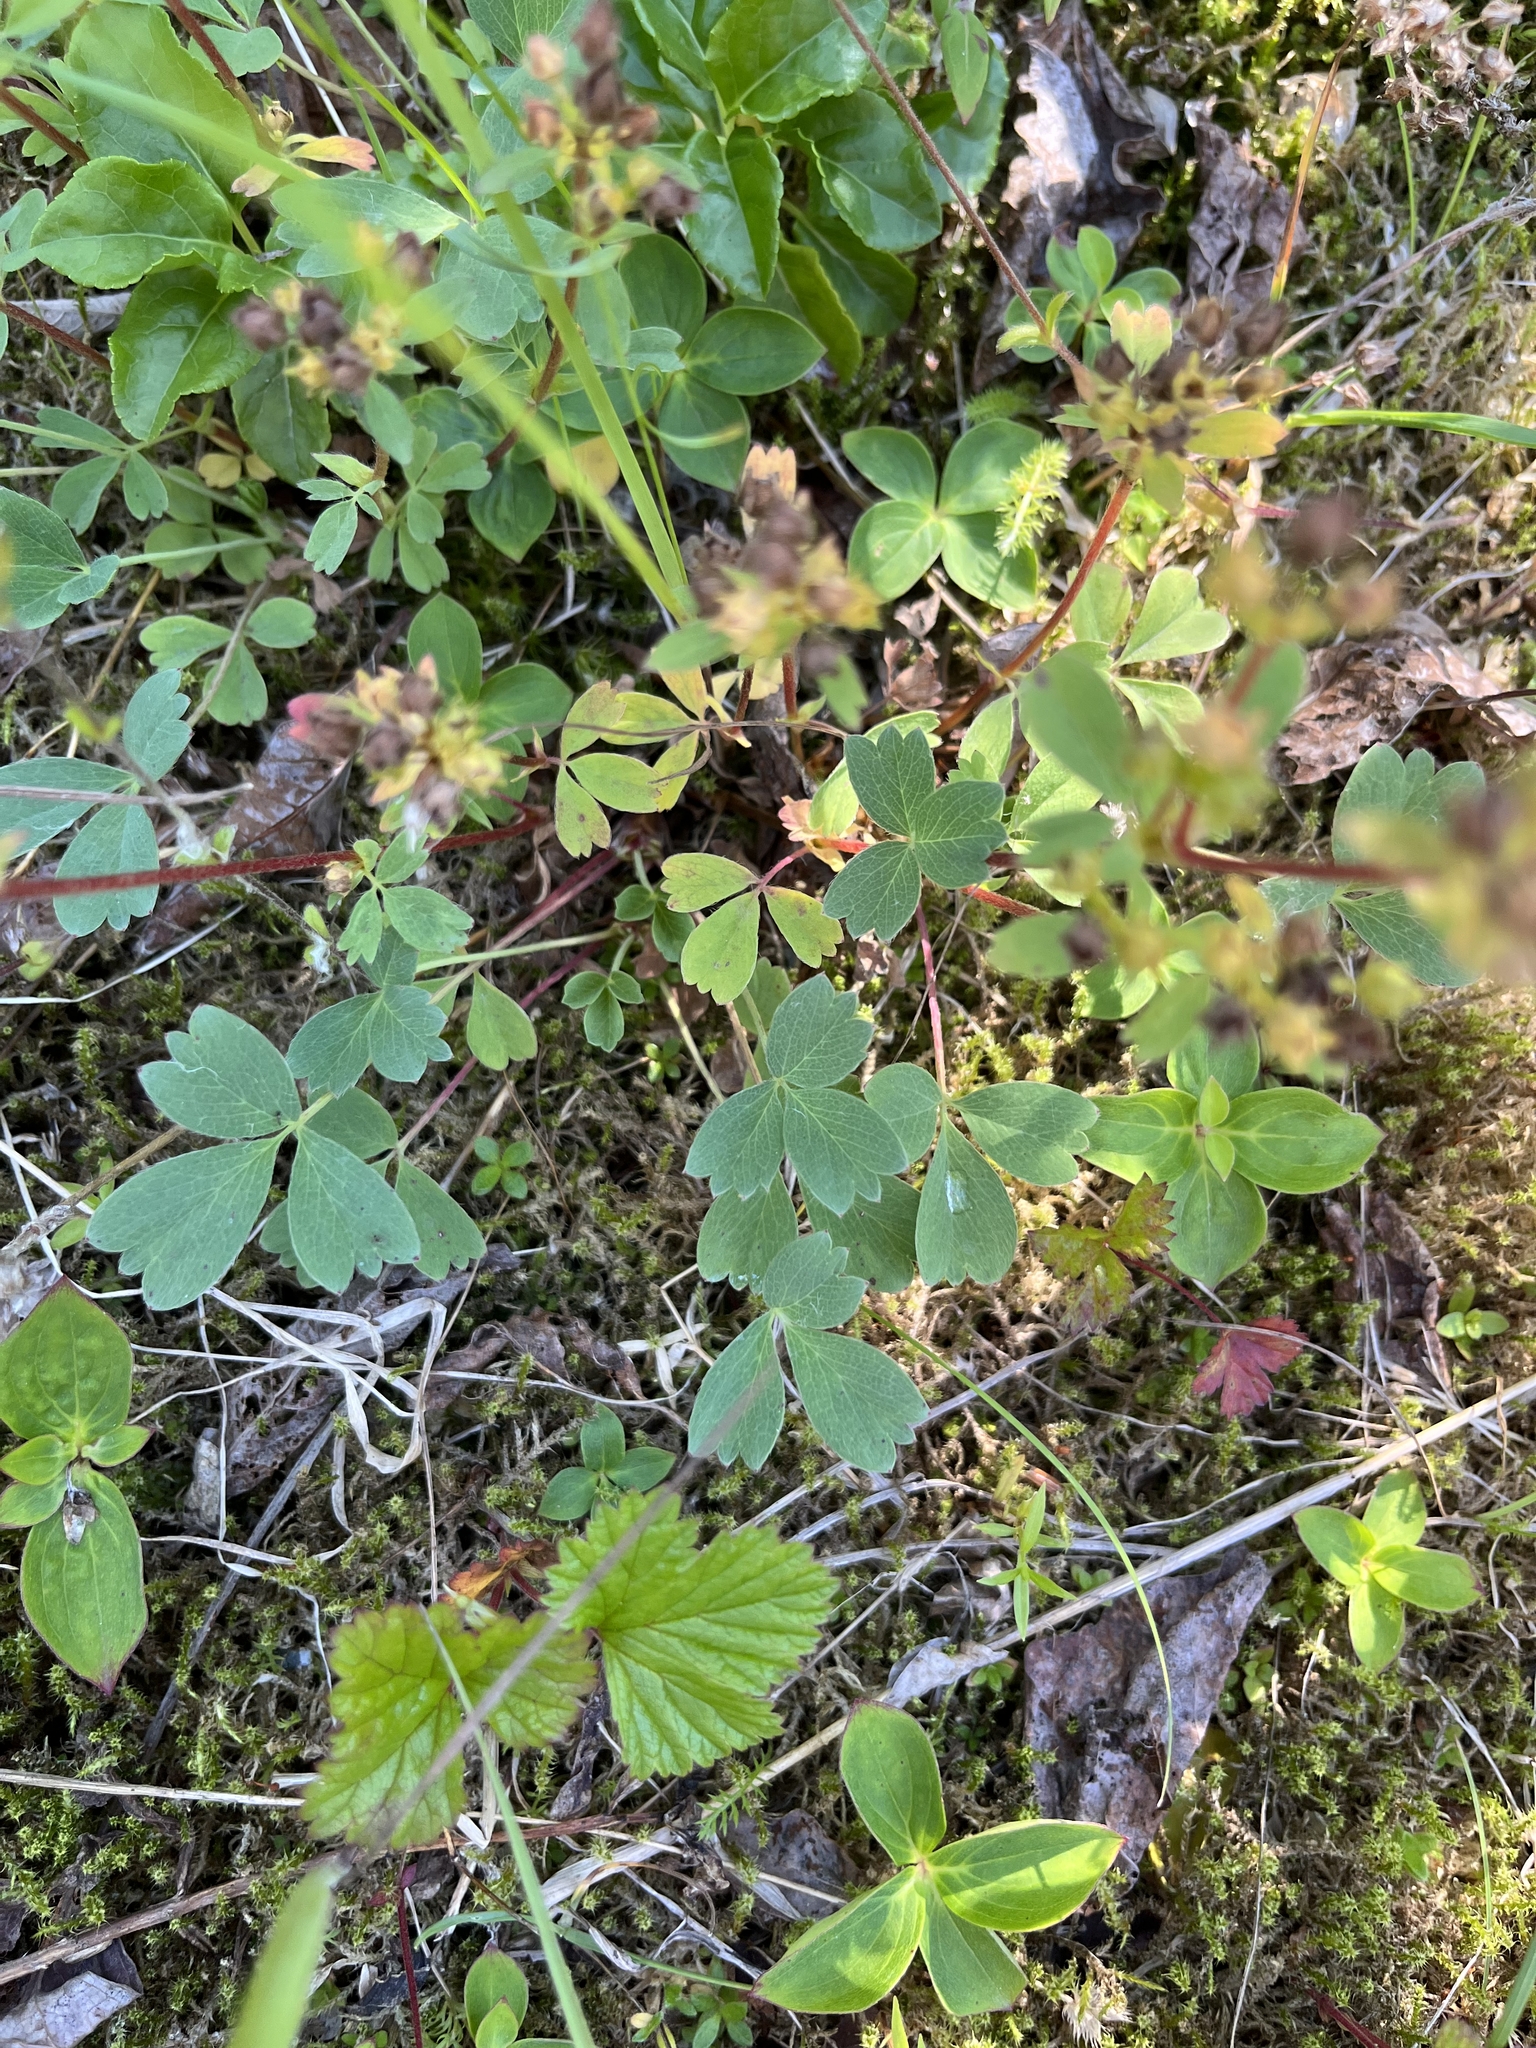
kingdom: Plantae
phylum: Tracheophyta
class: Magnoliopsida
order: Rosales
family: Rosaceae
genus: Sibbaldia
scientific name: Sibbaldia procumbens
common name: Creeping sibbaldia
